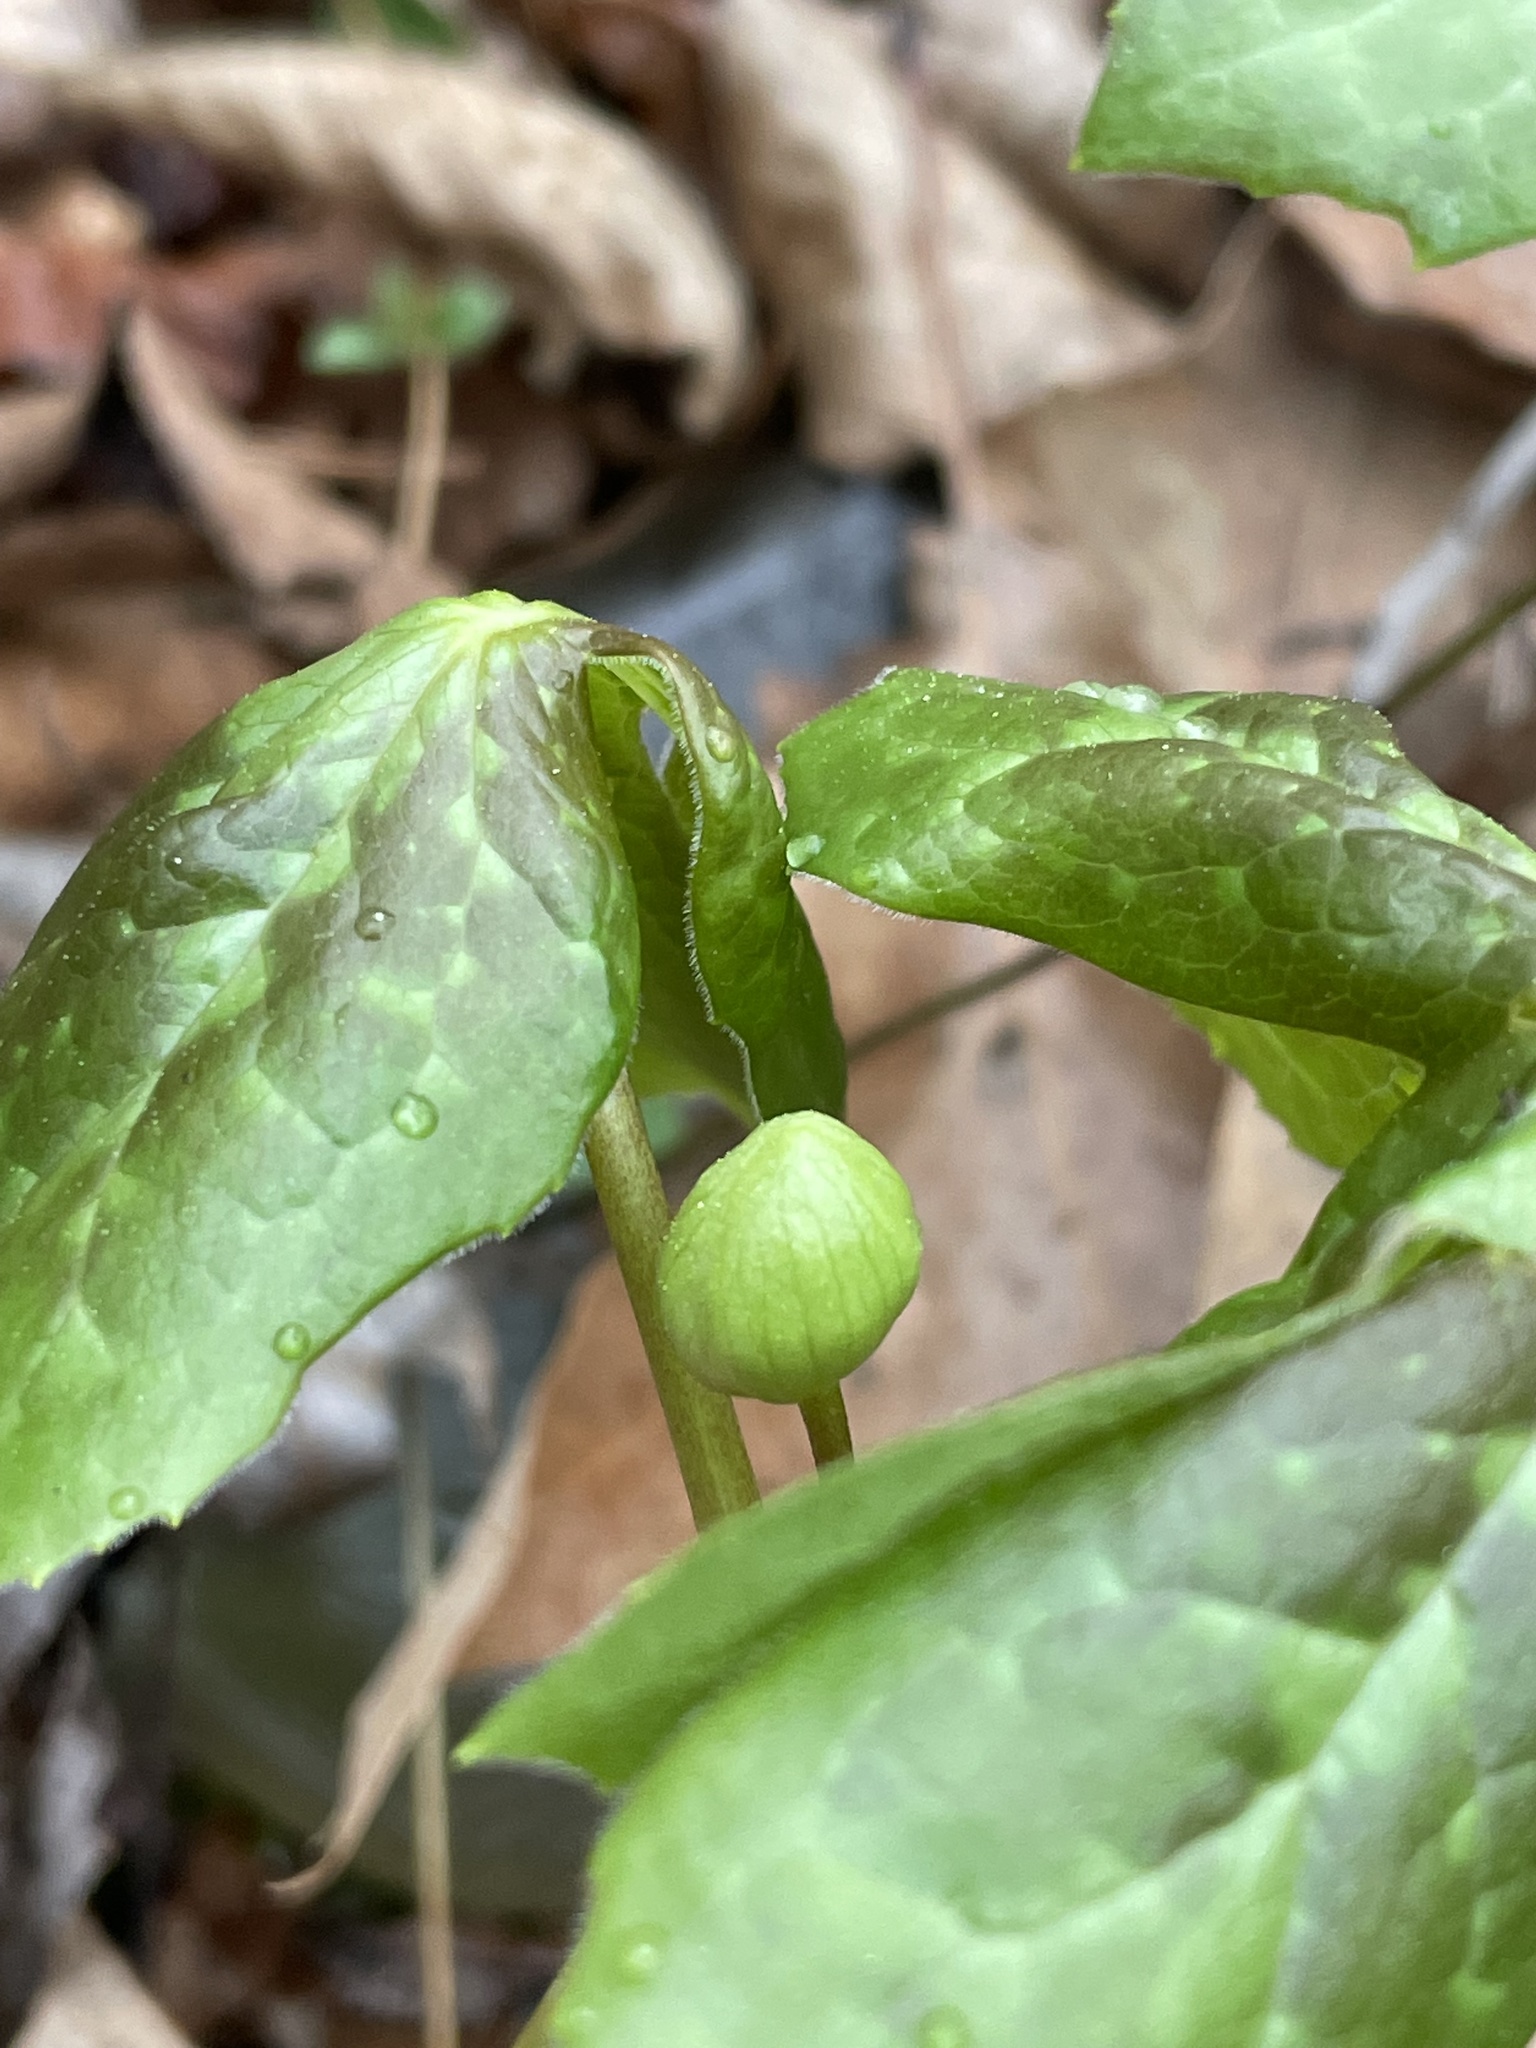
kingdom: Plantae
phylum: Tracheophyta
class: Magnoliopsida
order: Ranunculales
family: Berberidaceae
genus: Podophyllum
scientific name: Podophyllum peltatum
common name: Wild mandrake
